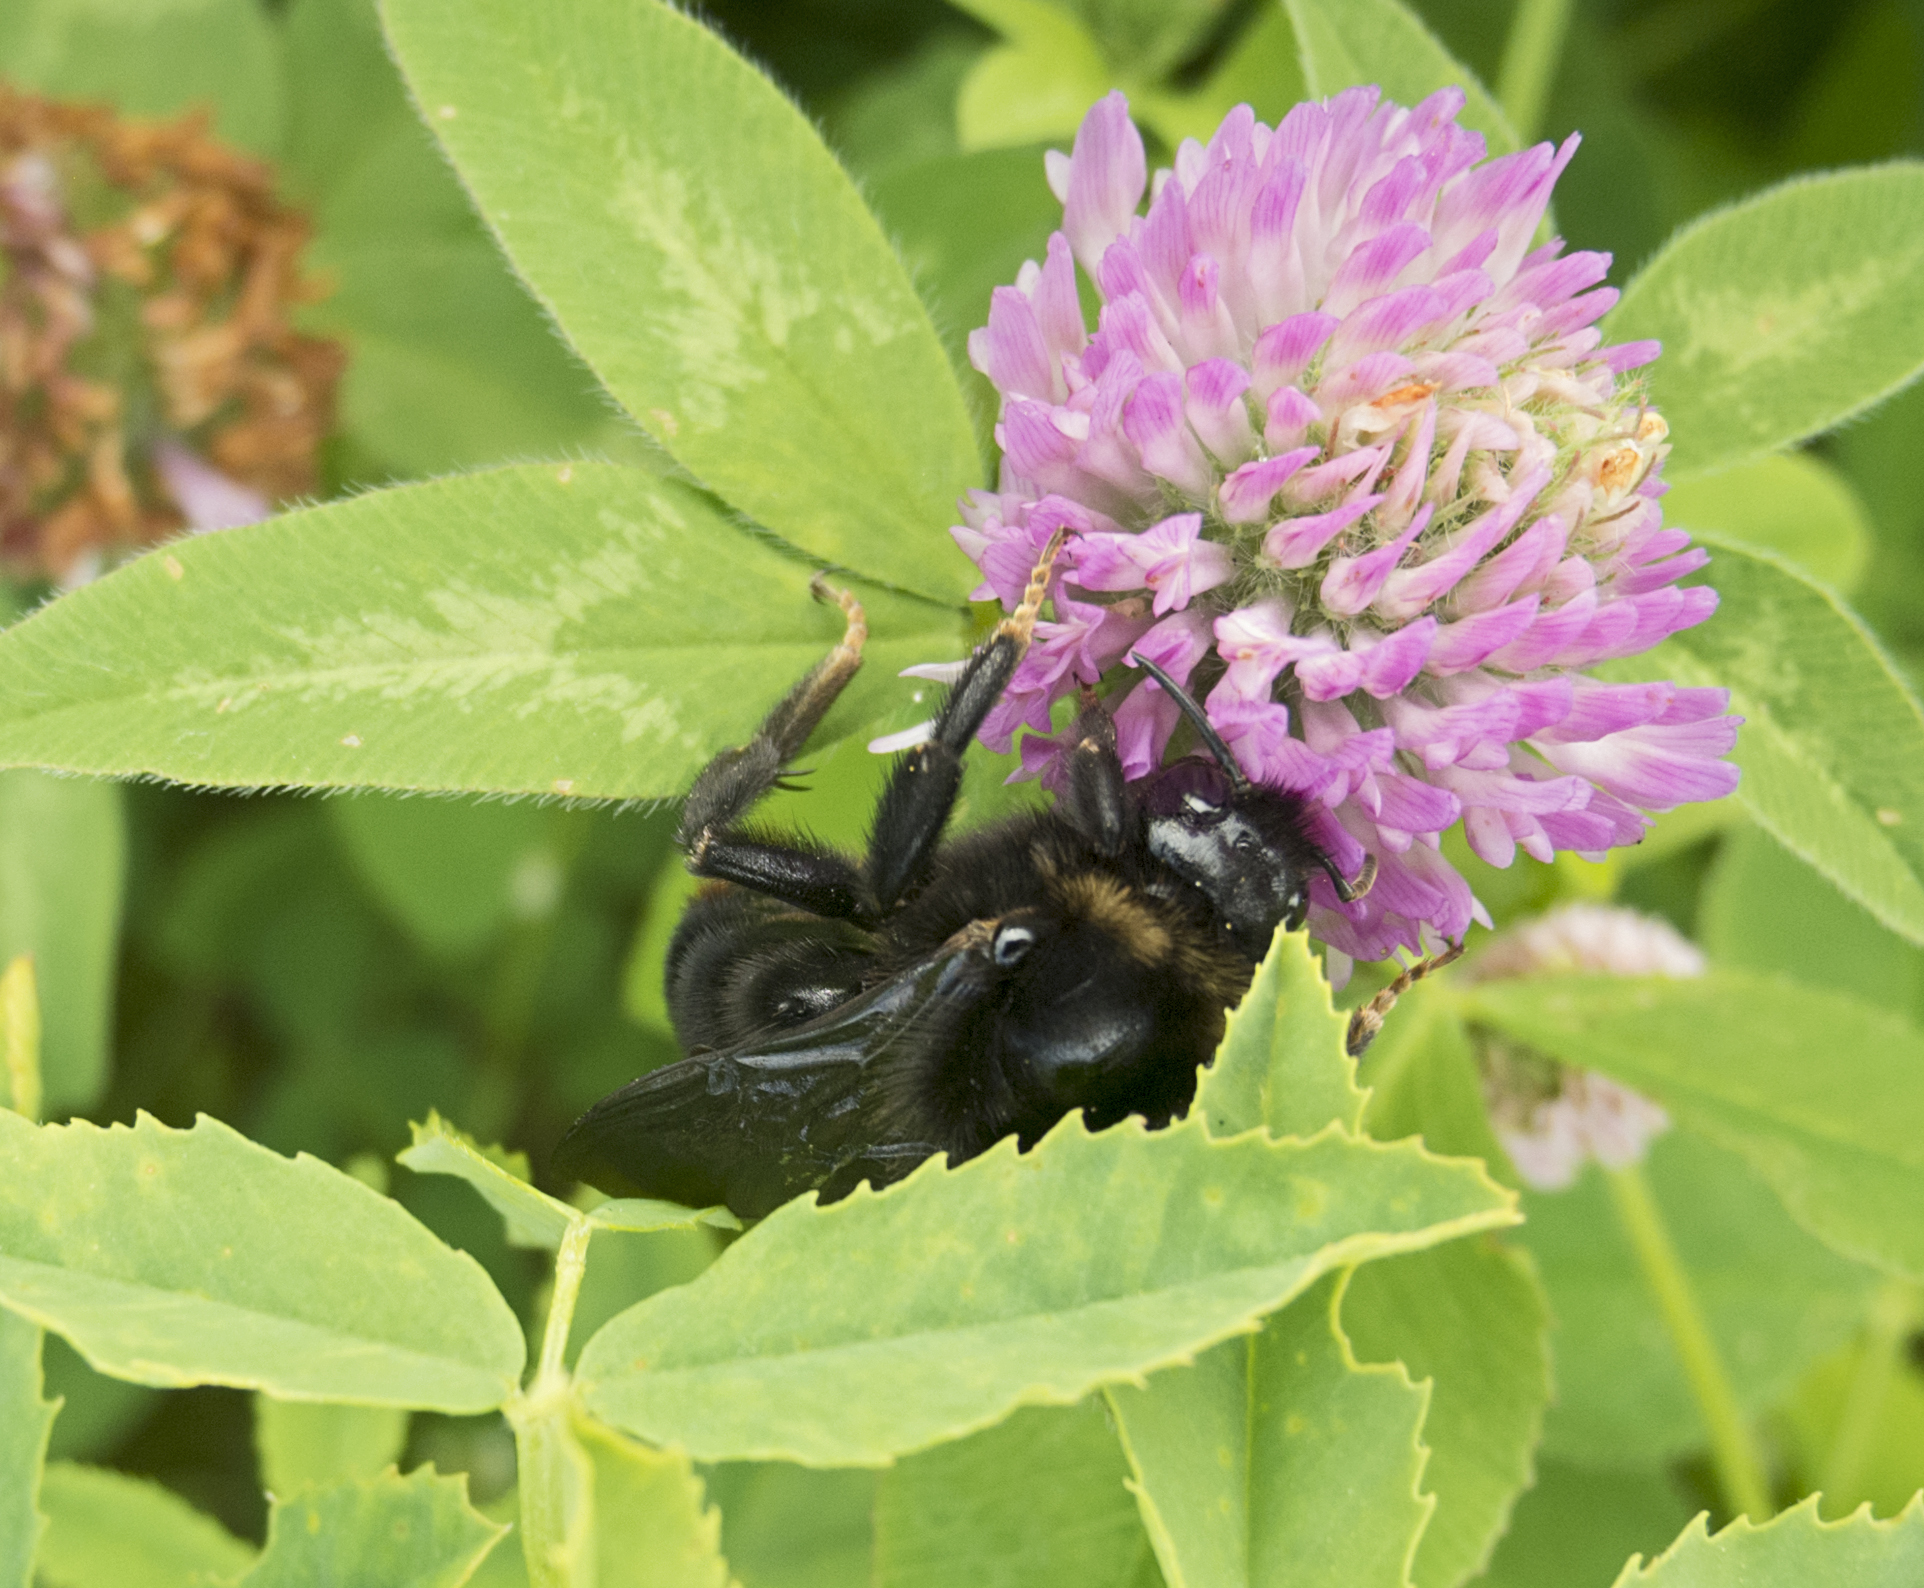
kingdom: Animalia
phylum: Arthropoda
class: Insecta
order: Hymenoptera
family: Apidae
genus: Bombus
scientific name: Bombus rupestris
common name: Hill cuckoo-bee
